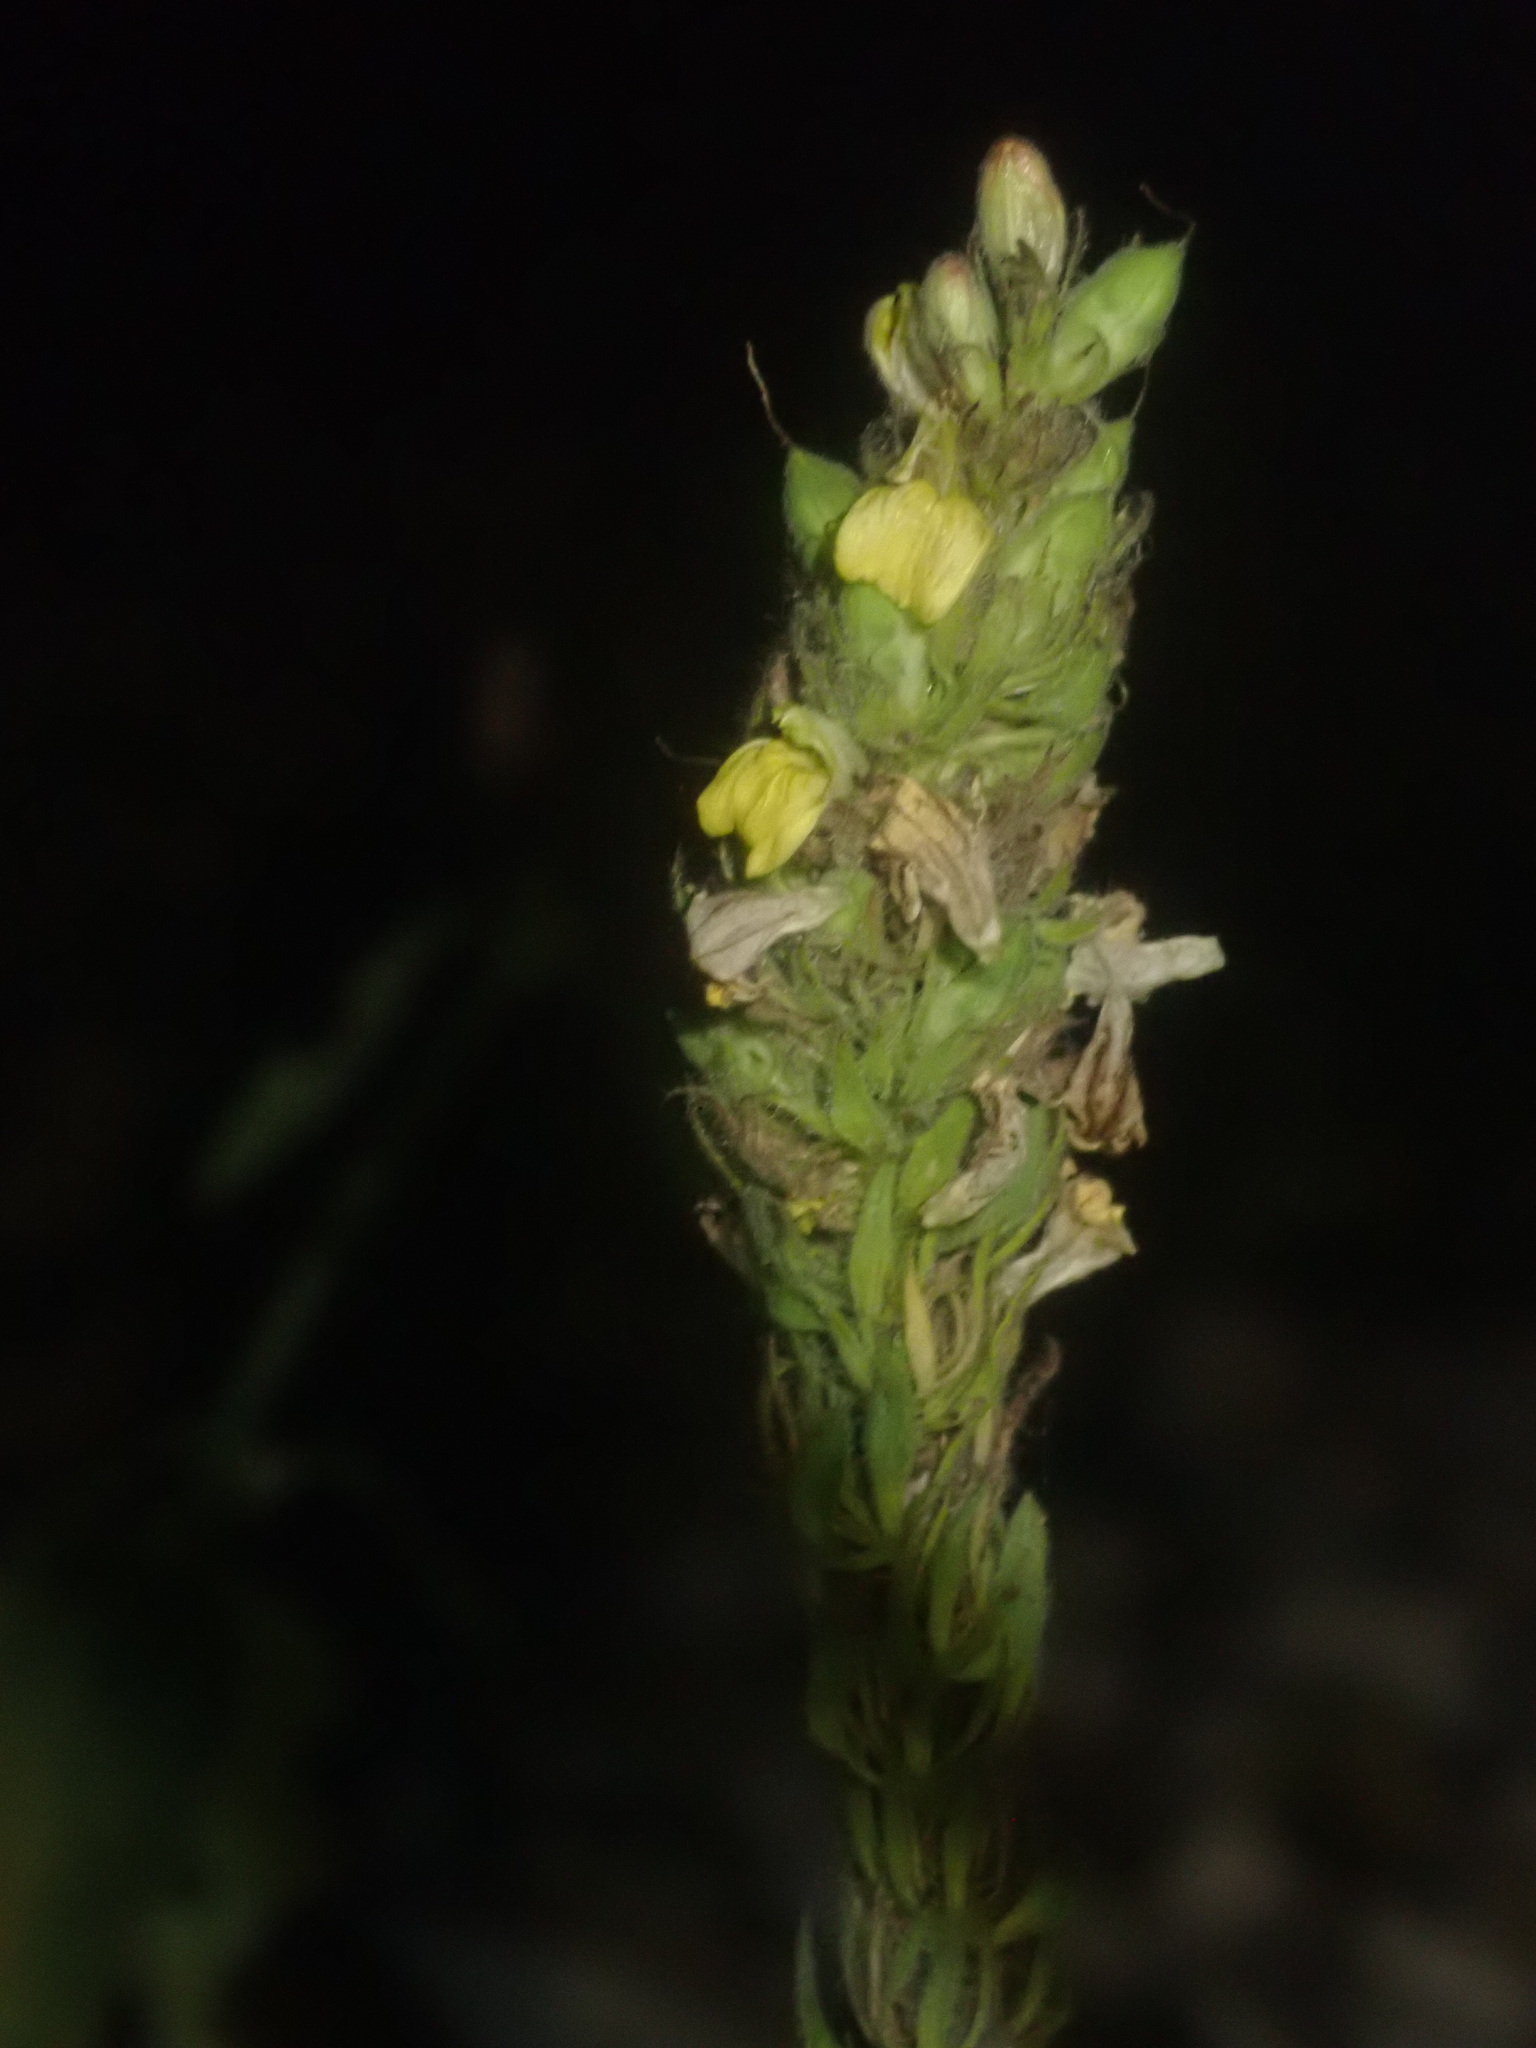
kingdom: Plantae
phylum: Tracheophyta
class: Magnoliopsida
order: Lamiales
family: Acanthaceae
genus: Justicia
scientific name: Justicia flava
